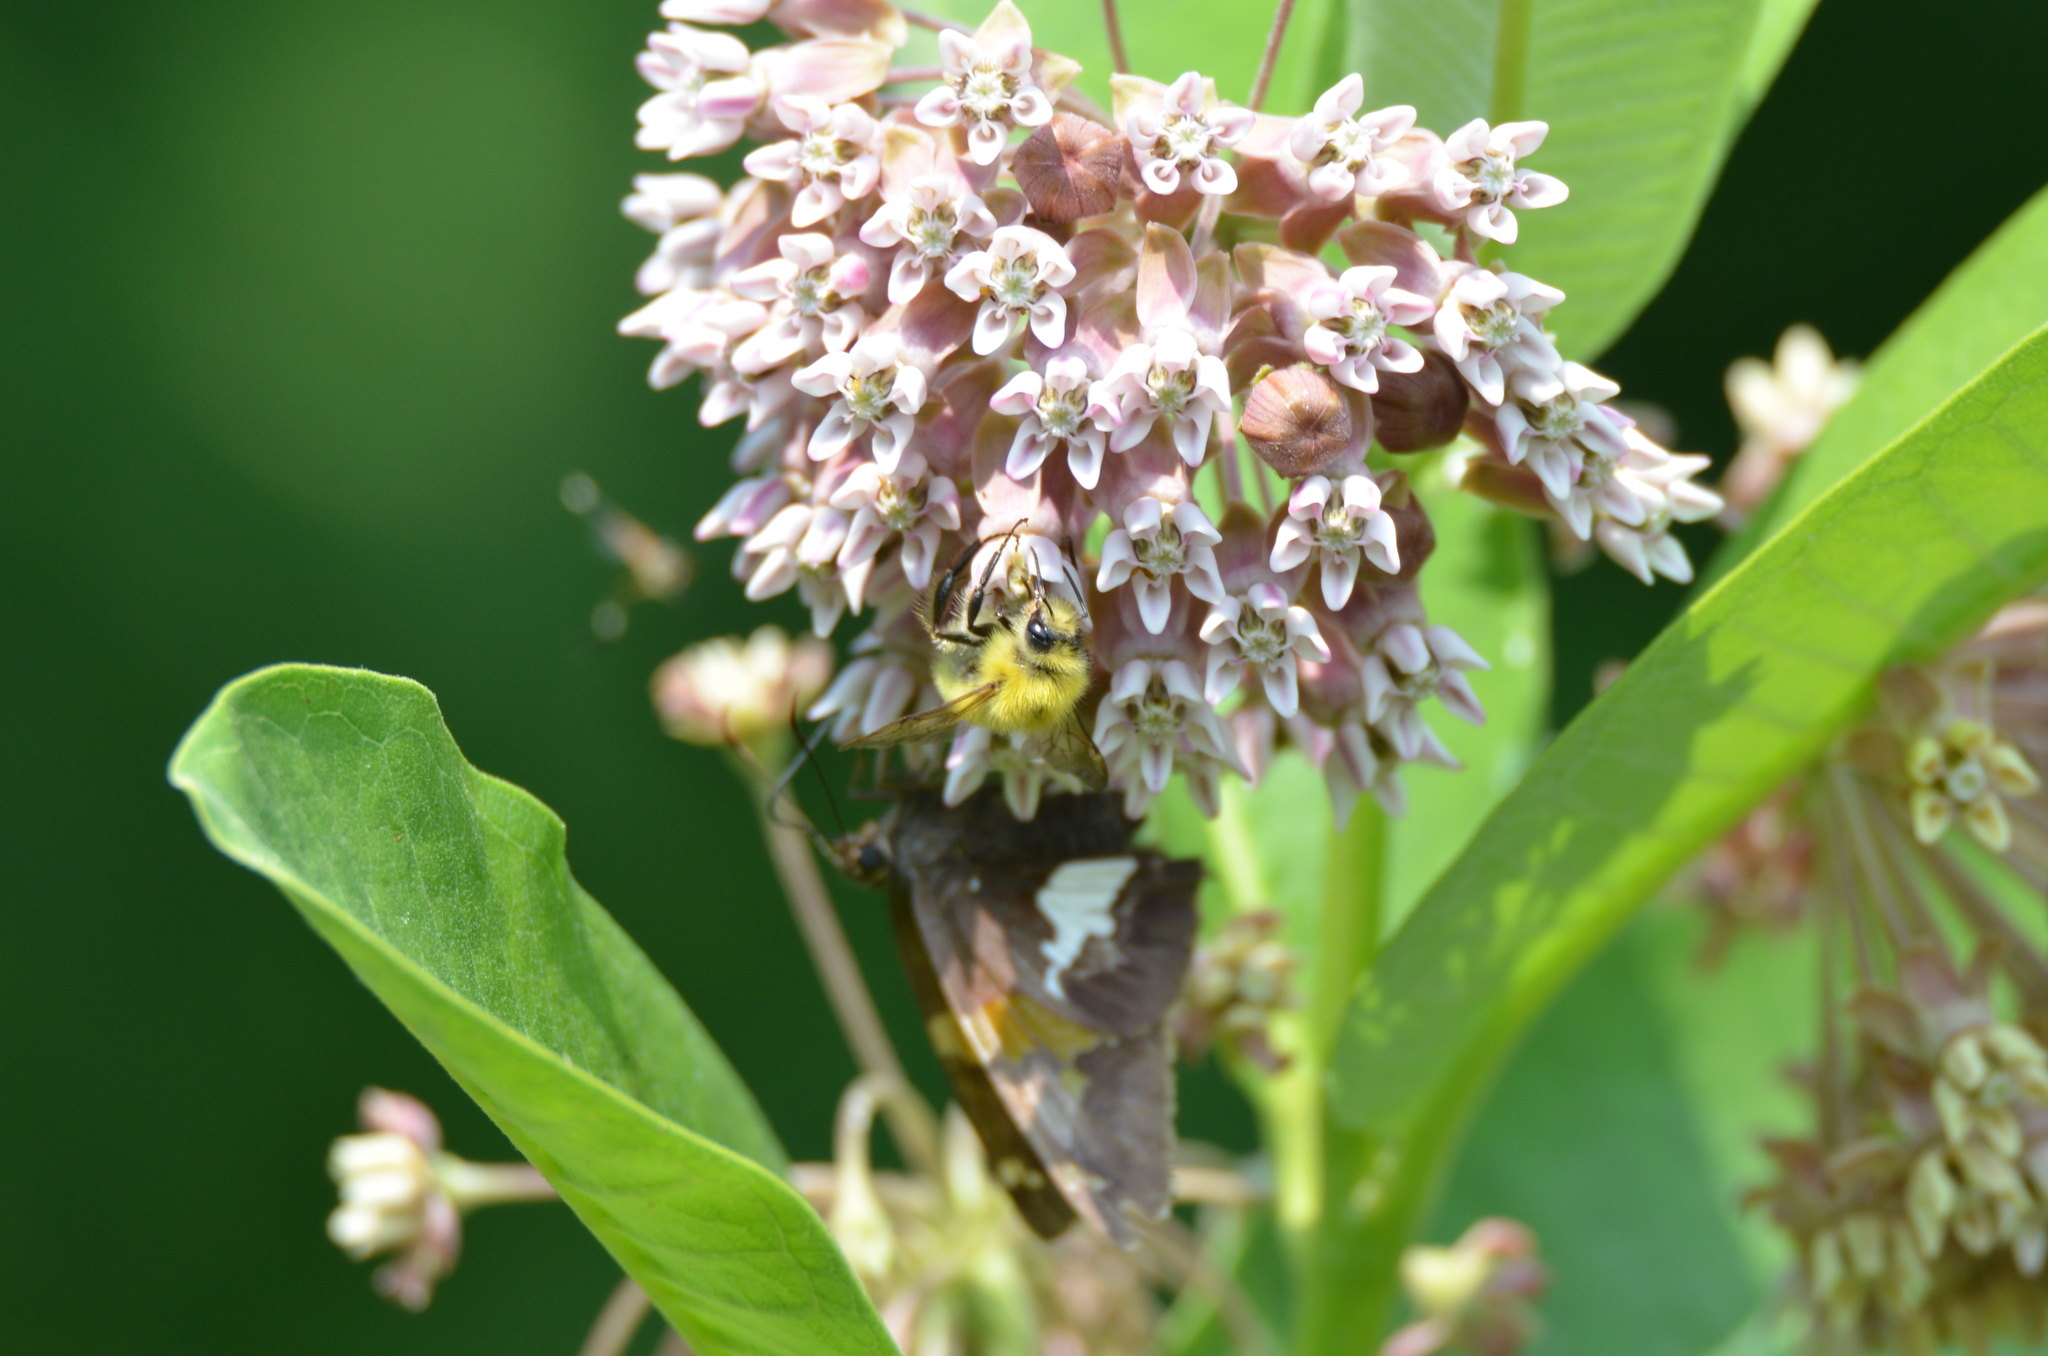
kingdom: Animalia
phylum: Arthropoda
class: Insecta
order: Hymenoptera
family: Apidae
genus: Bombus
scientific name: Bombus perplexus
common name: Confusing bumble bee
